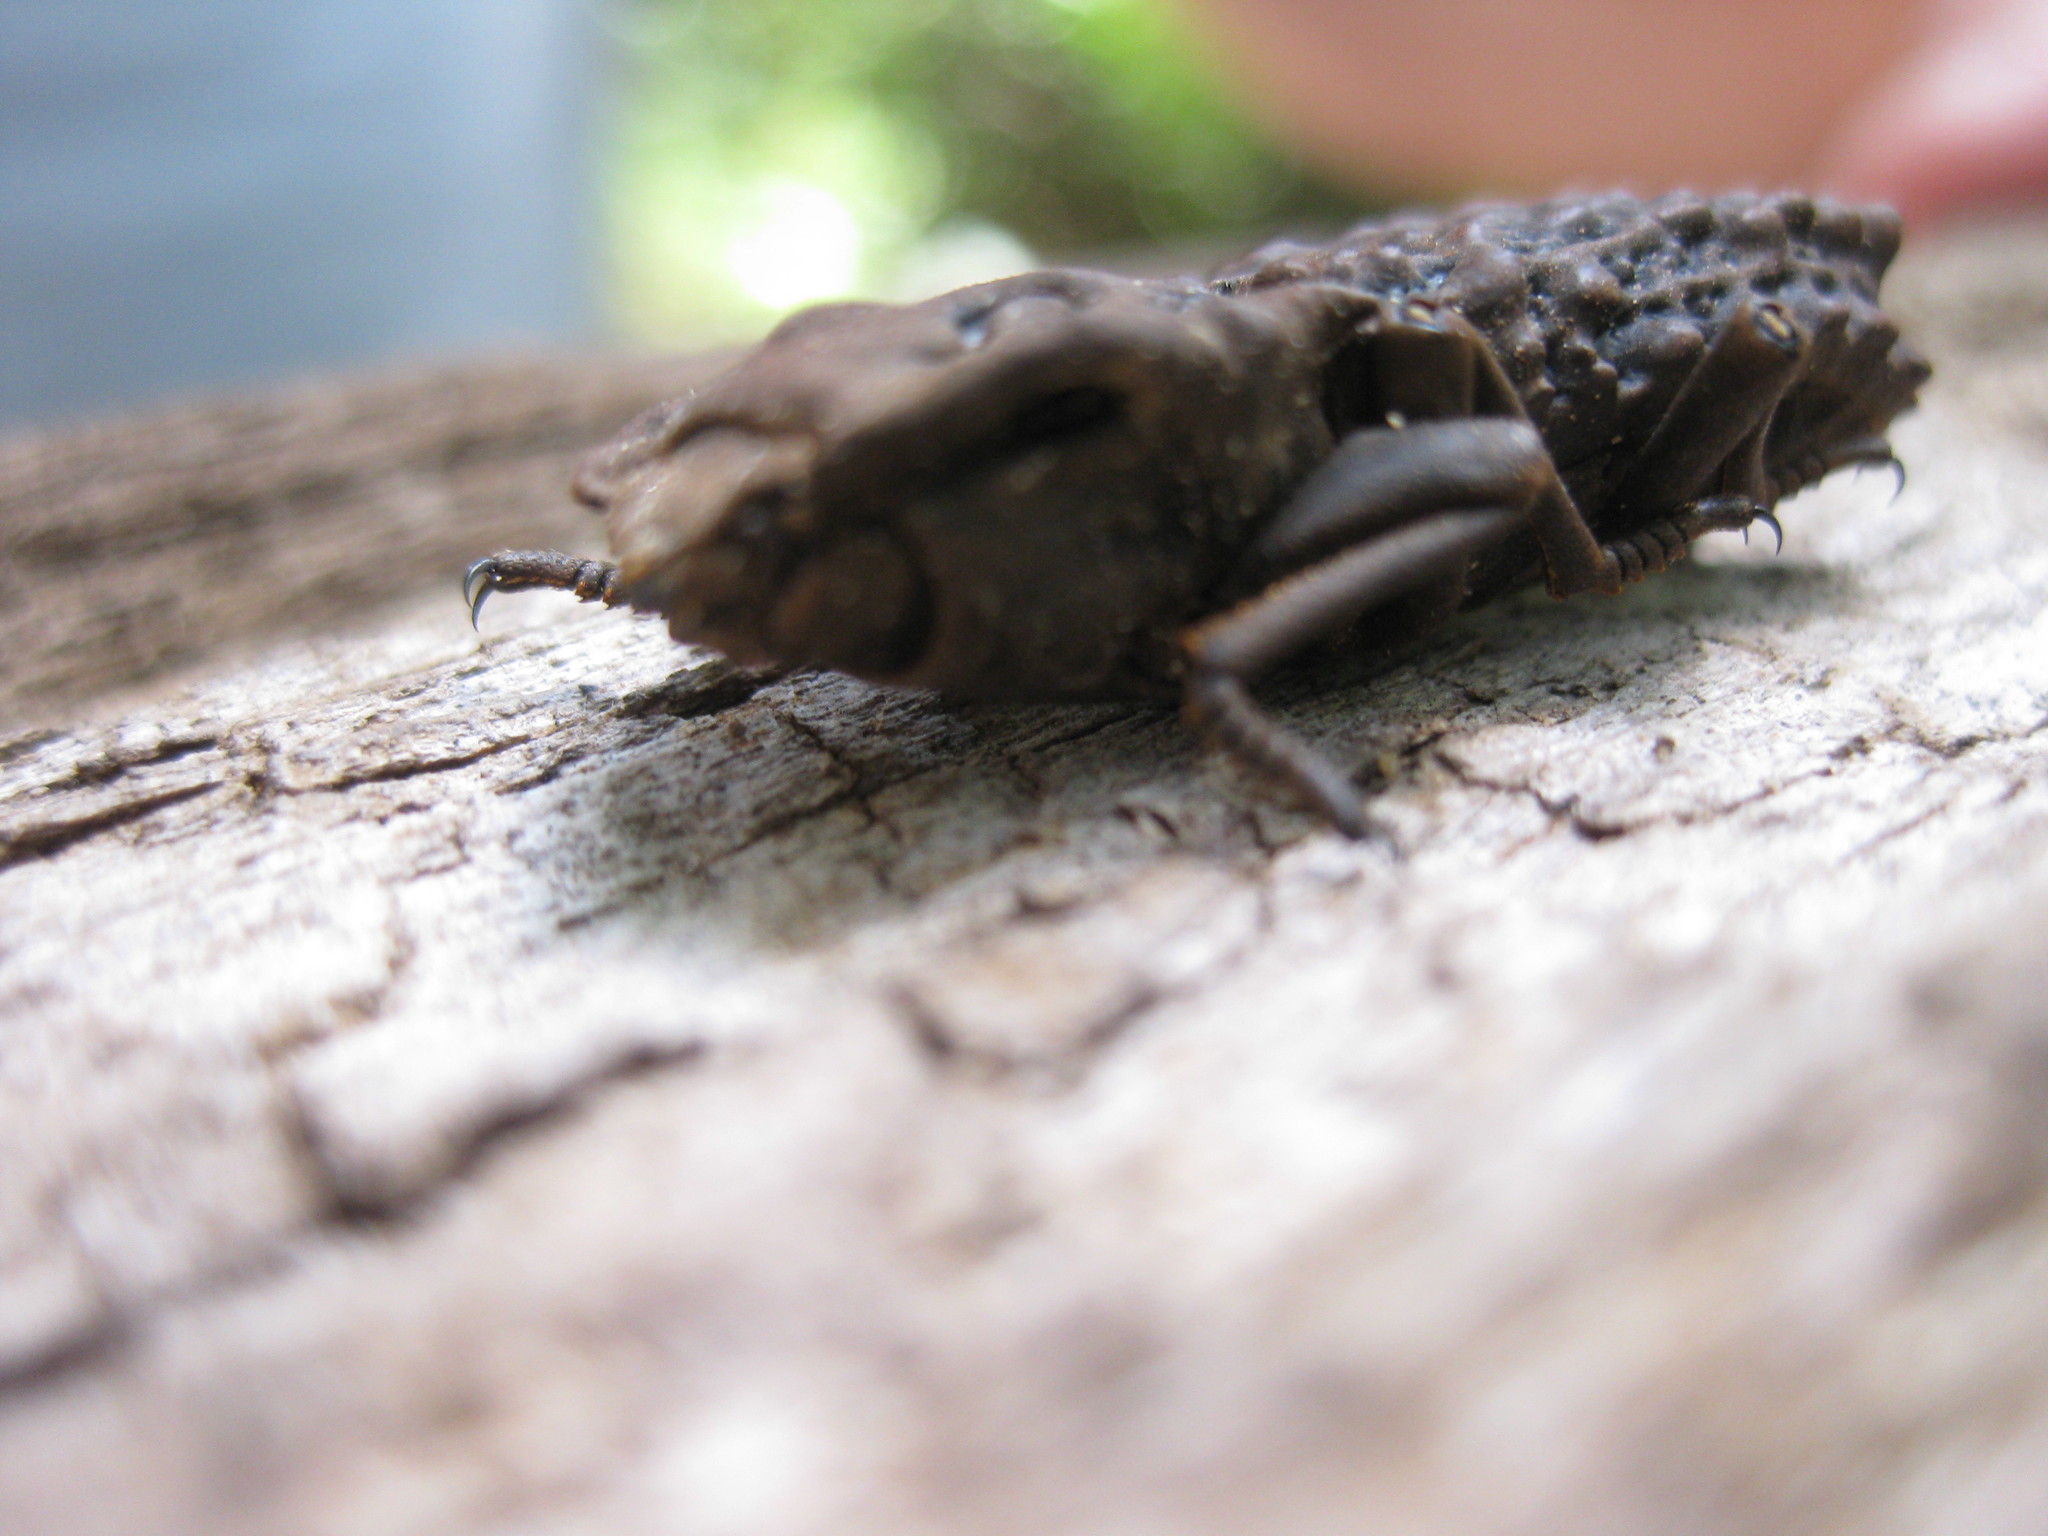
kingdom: Animalia
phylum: Arthropoda
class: Insecta
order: Coleoptera
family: Zopheridae
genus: Zopherosis
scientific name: Zopherosis
